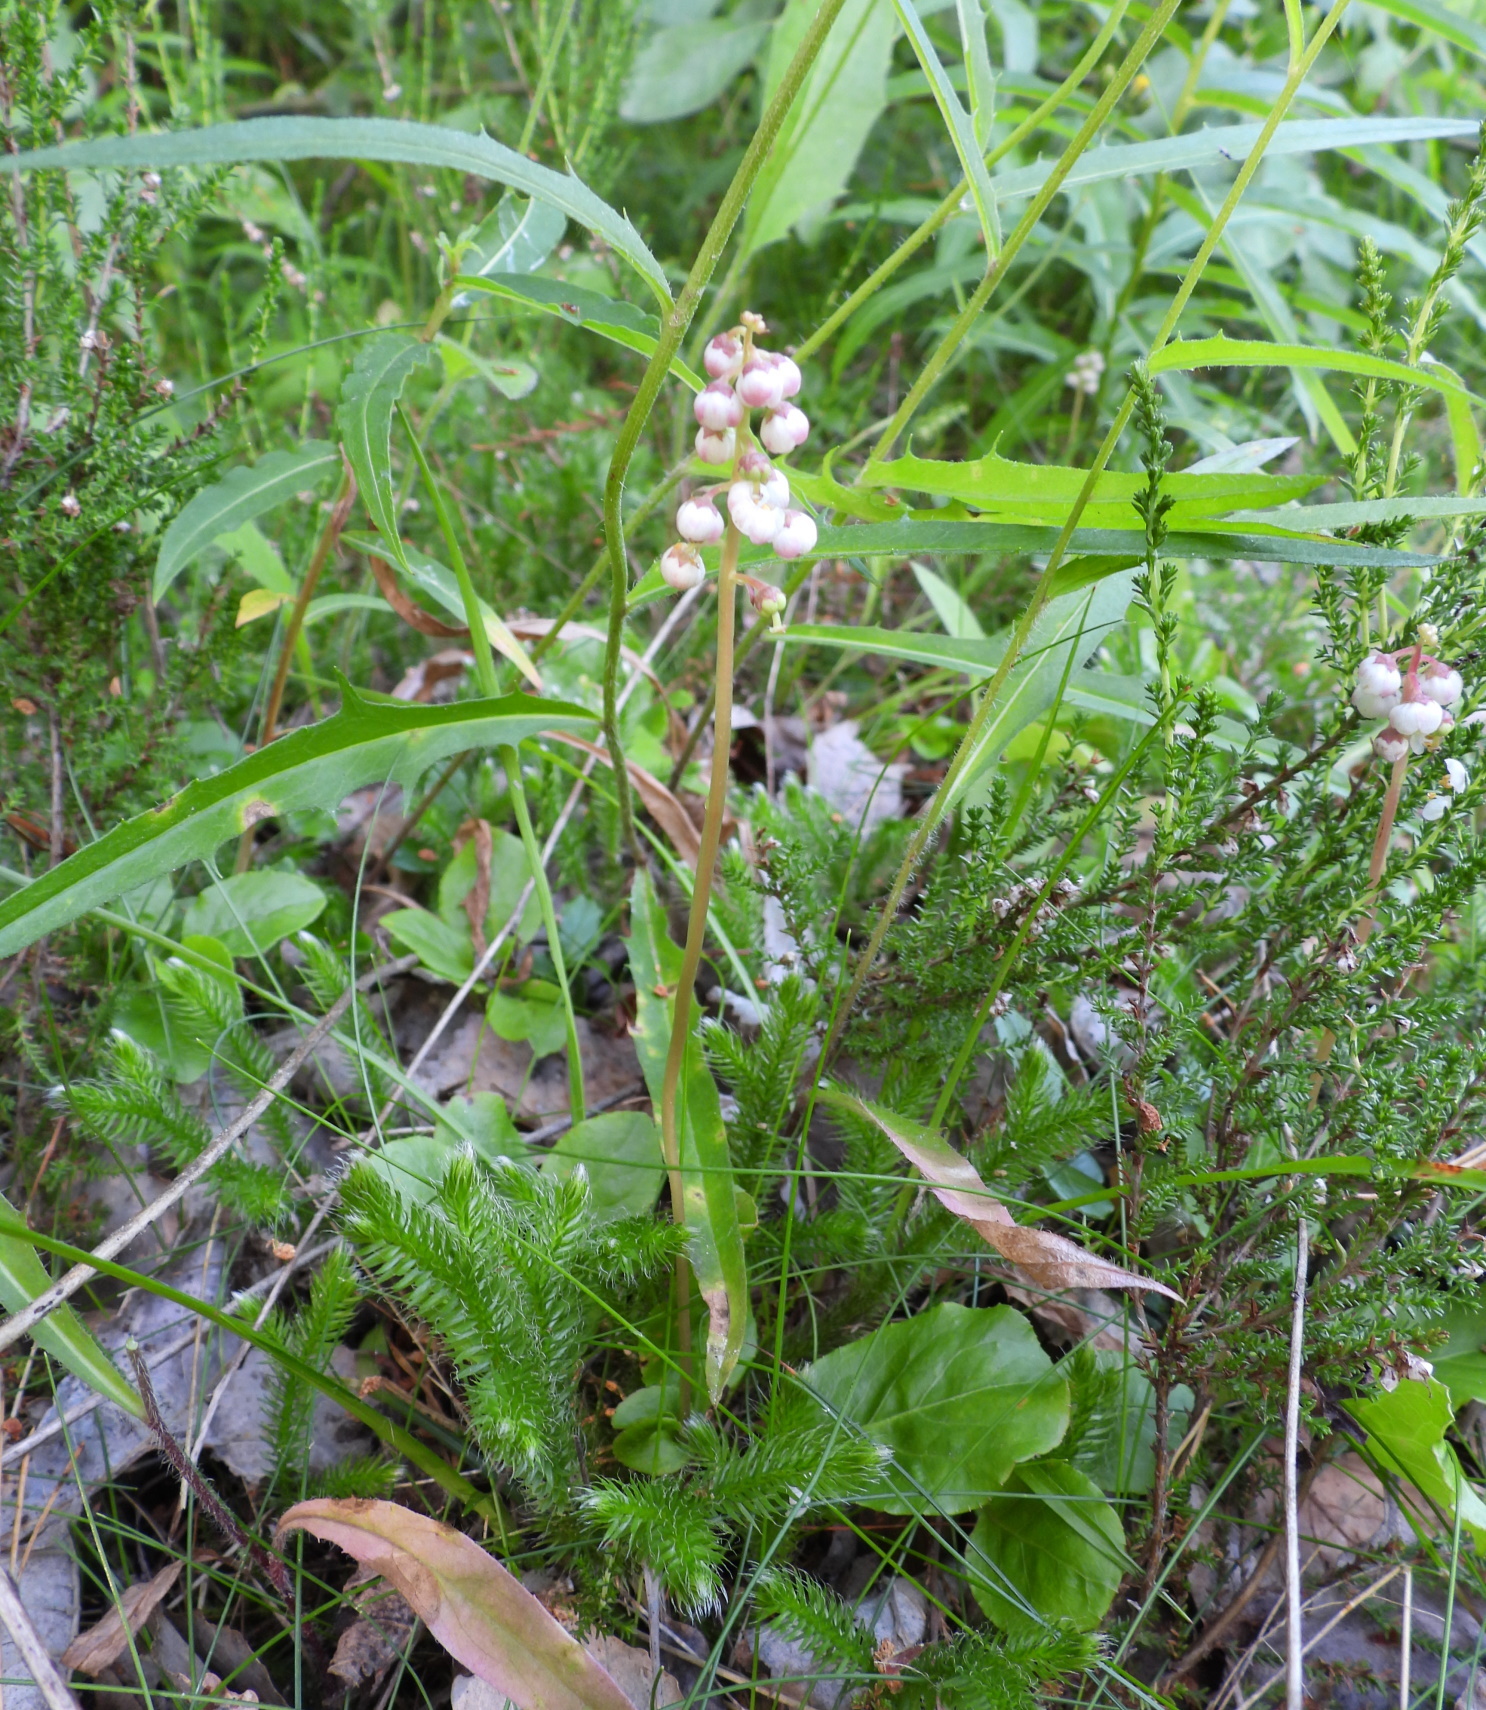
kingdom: Plantae
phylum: Tracheophyta
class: Magnoliopsida
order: Ericales
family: Ericaceae
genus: Pyrola
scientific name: Pyrola minor
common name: Common wintergreen
